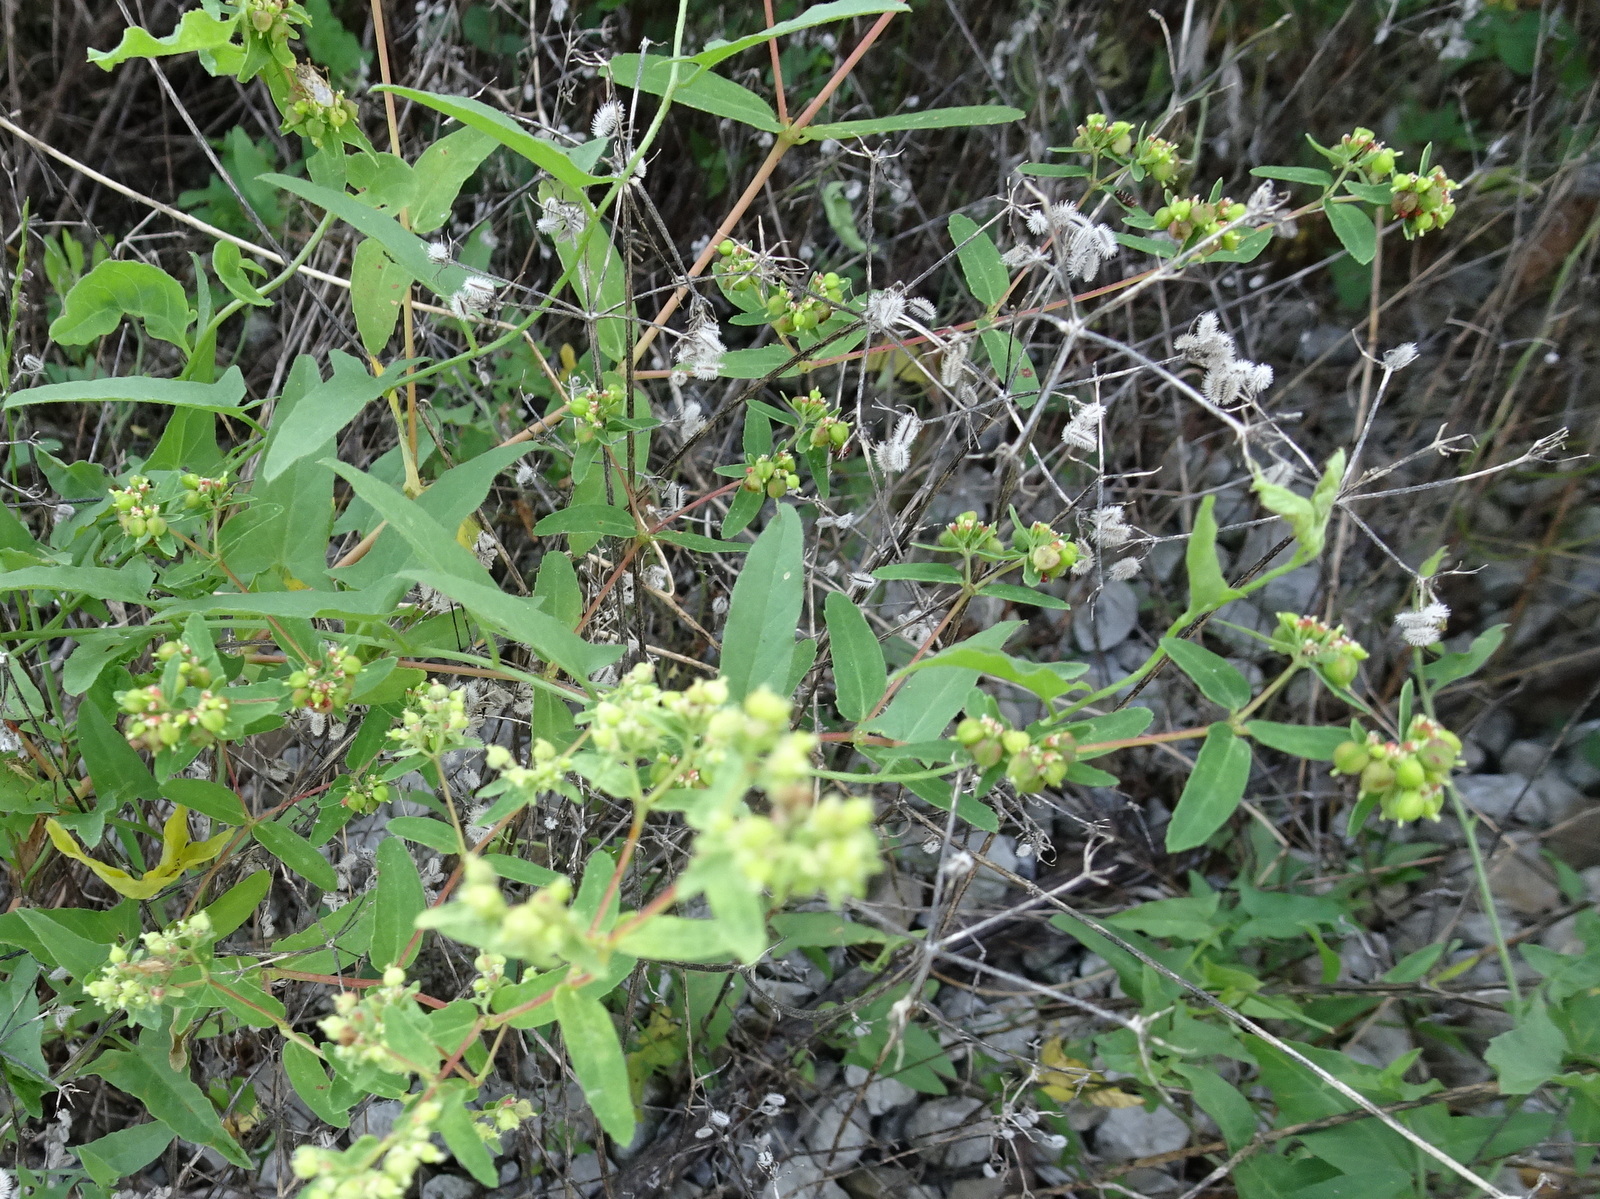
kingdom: Plantae
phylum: Tracheophyta
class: Magnoliopsida
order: Malpighiales
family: Euphorbiaceae
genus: Euphorbia
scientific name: Euphorbia nutans
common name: Eyebane
